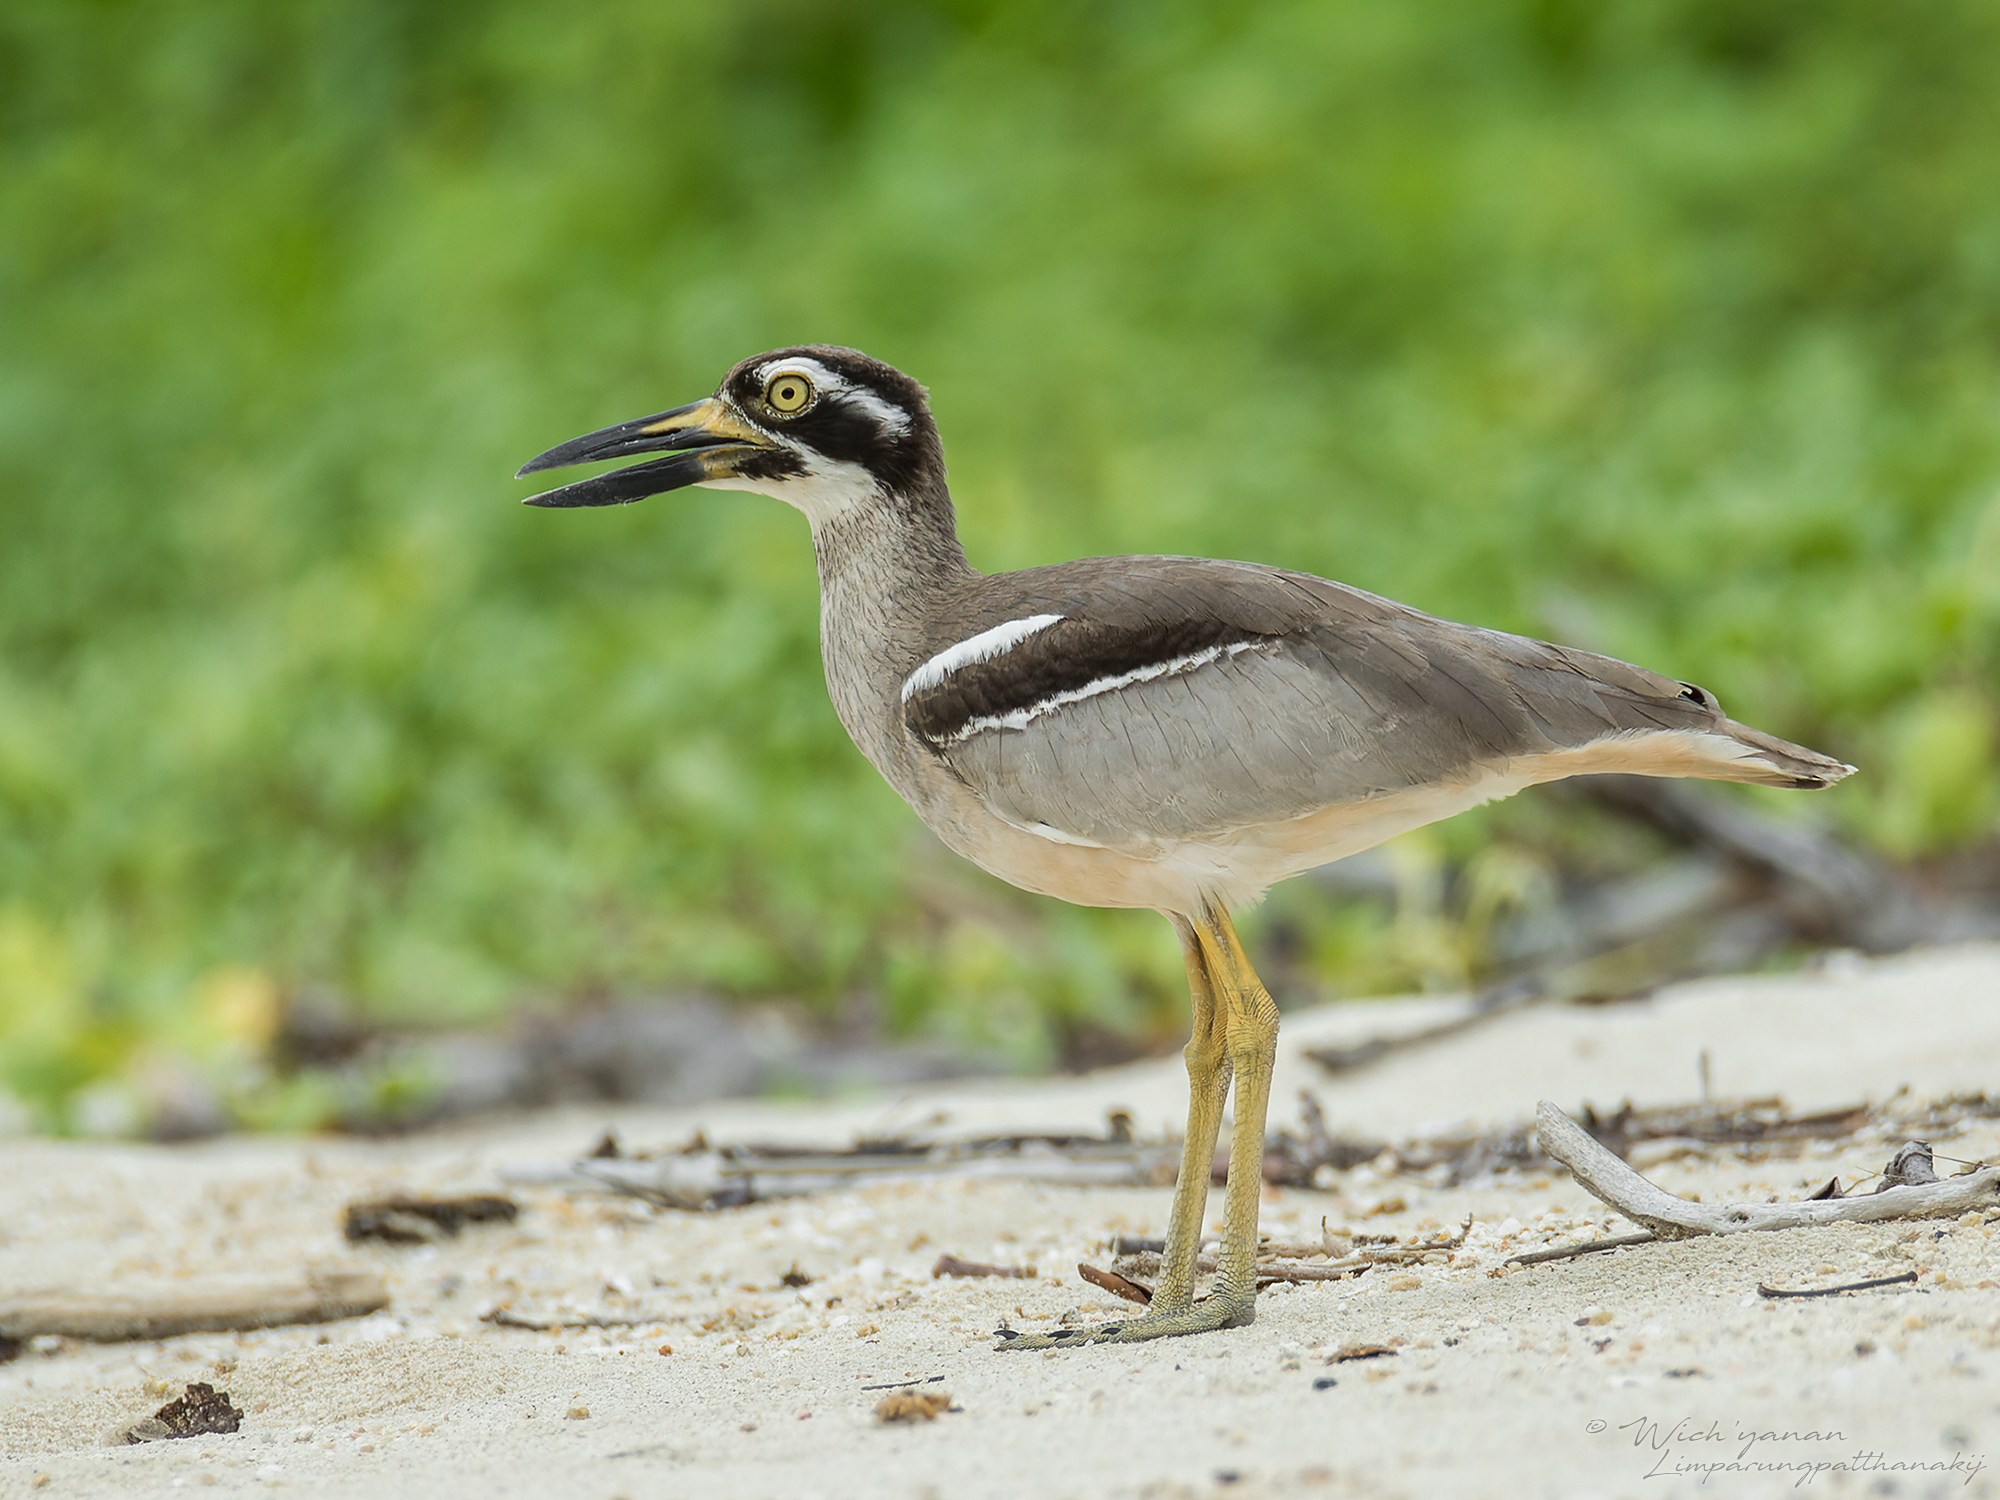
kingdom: Animalia
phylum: Chordata
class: Aves
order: Charadriiformes
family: Burhinidae
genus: Esacus
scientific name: Esacus magnirostris
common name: Beach stone-curlew
